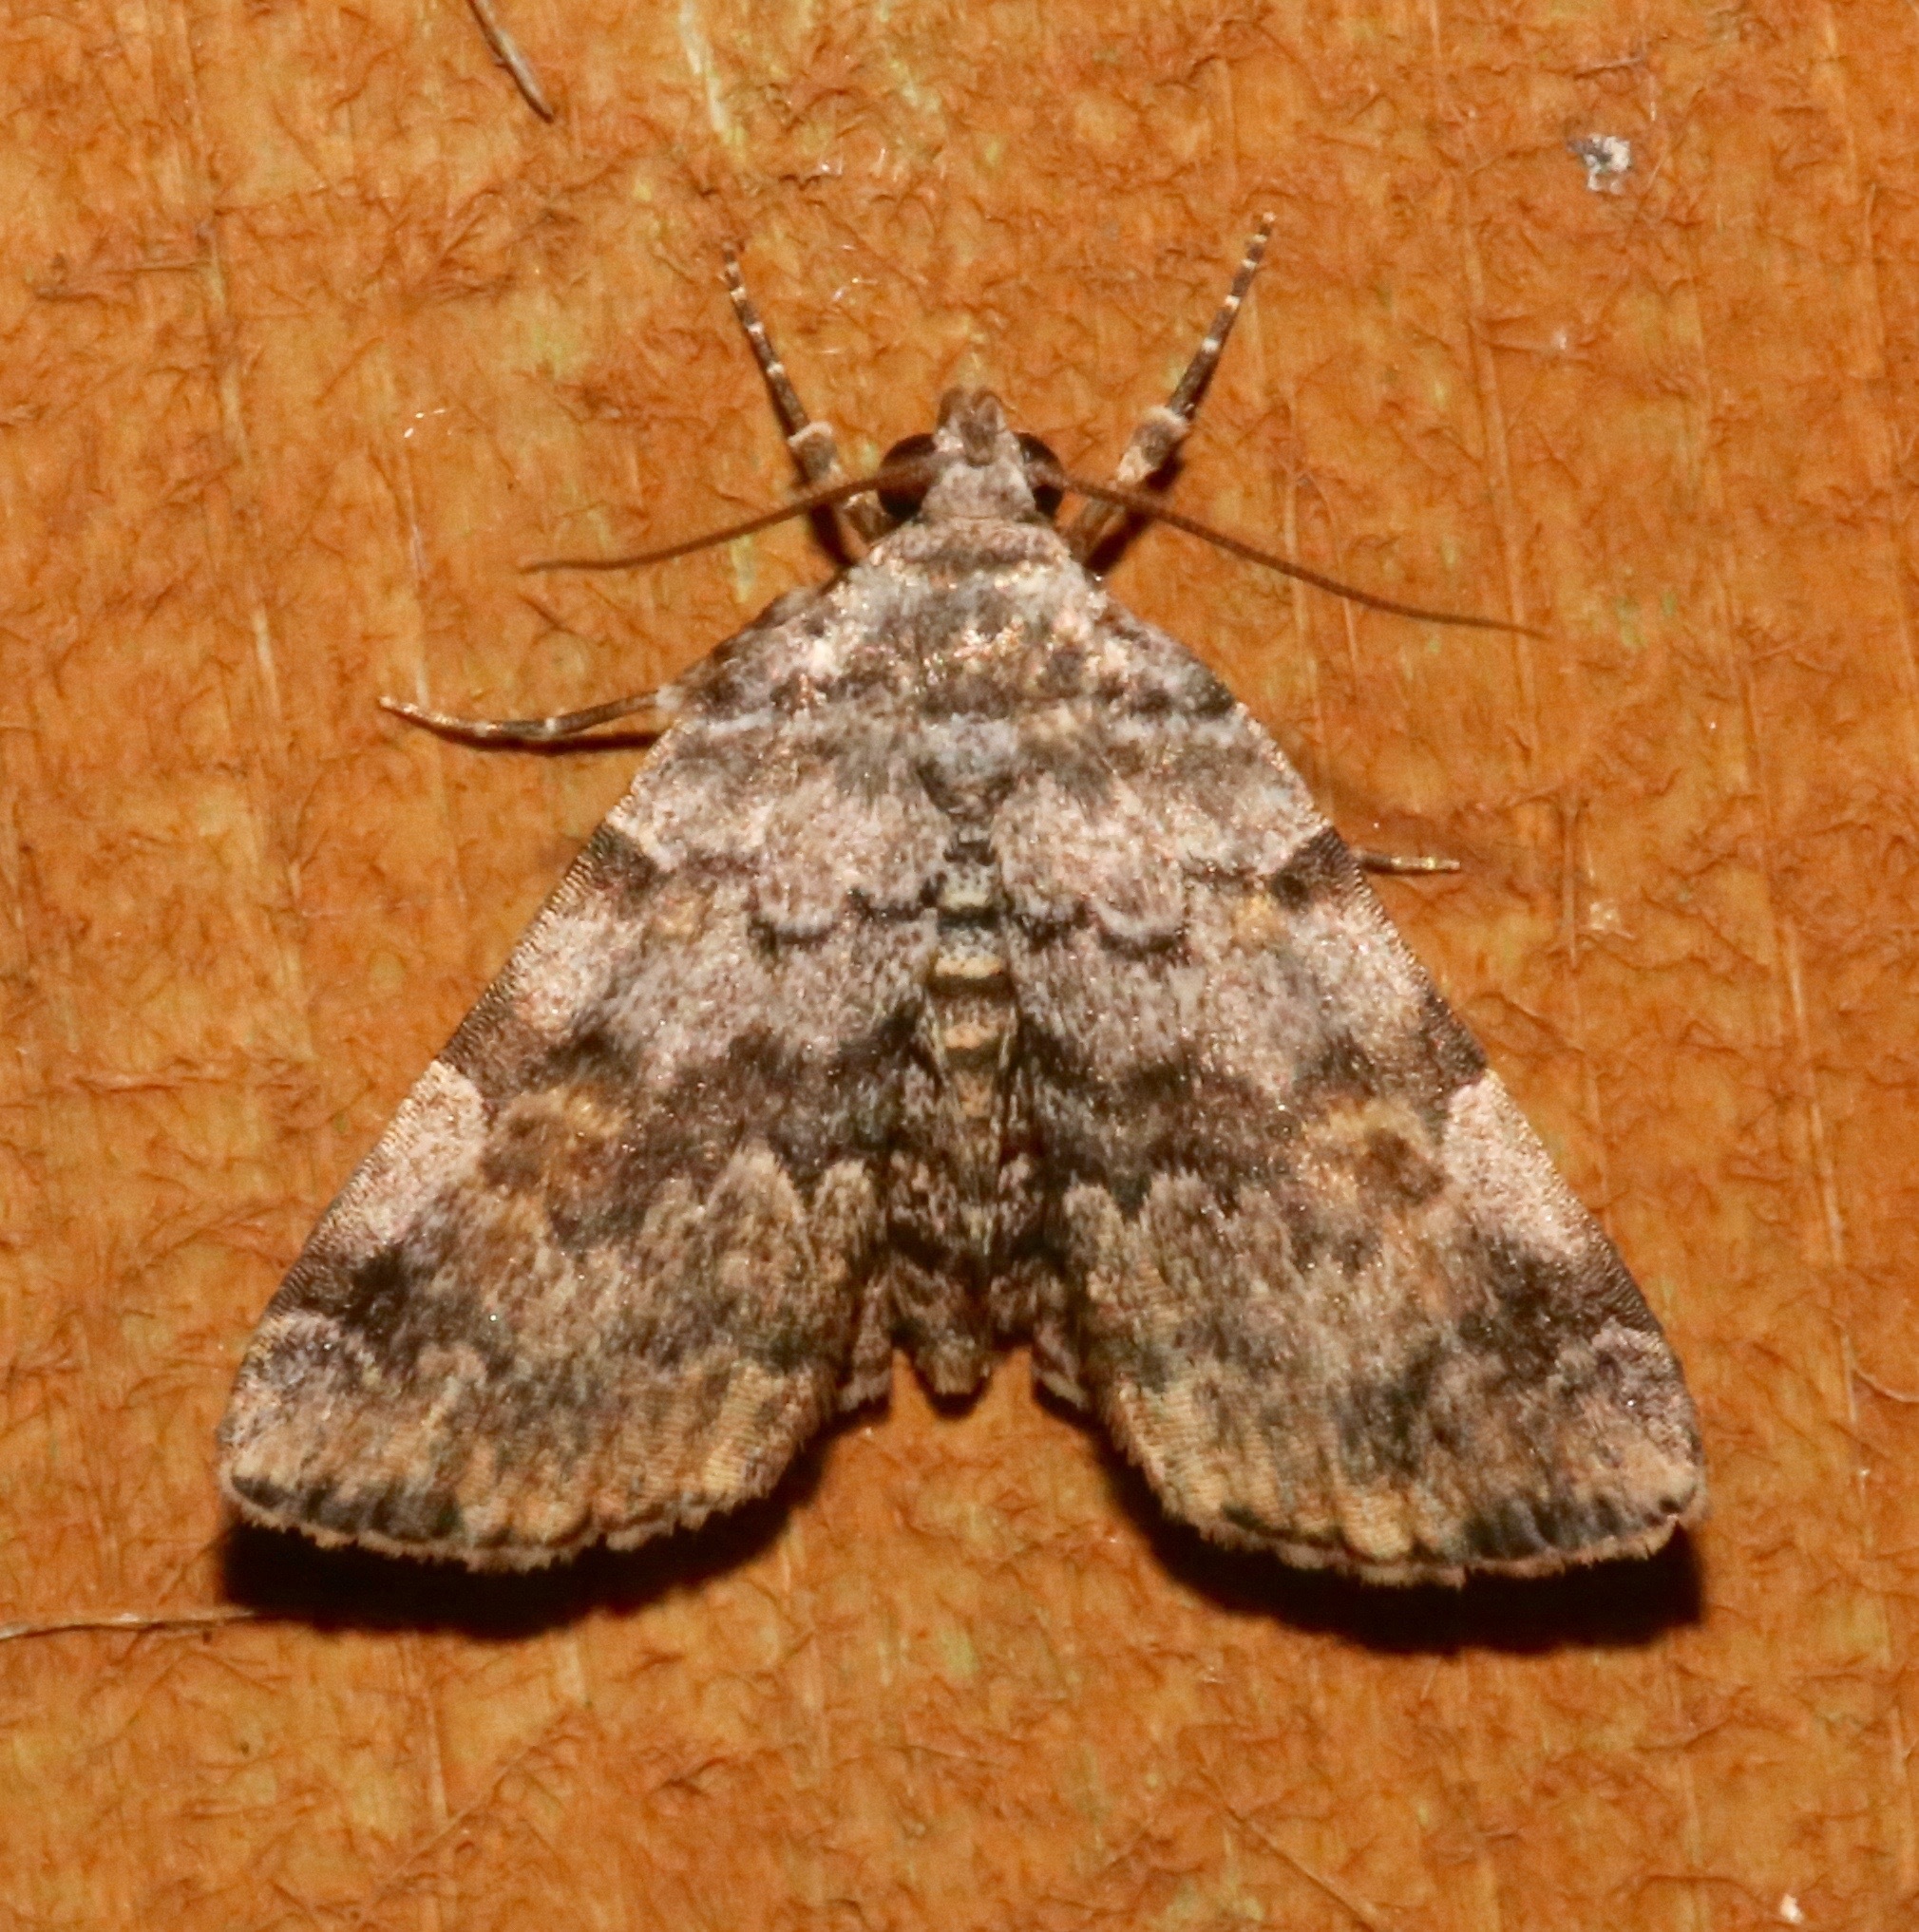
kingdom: Animalia
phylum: Arthropoda
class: Insecta
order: Lepidoptera
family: Erebidae
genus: Idia
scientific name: Idia americalis
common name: American idia moth
